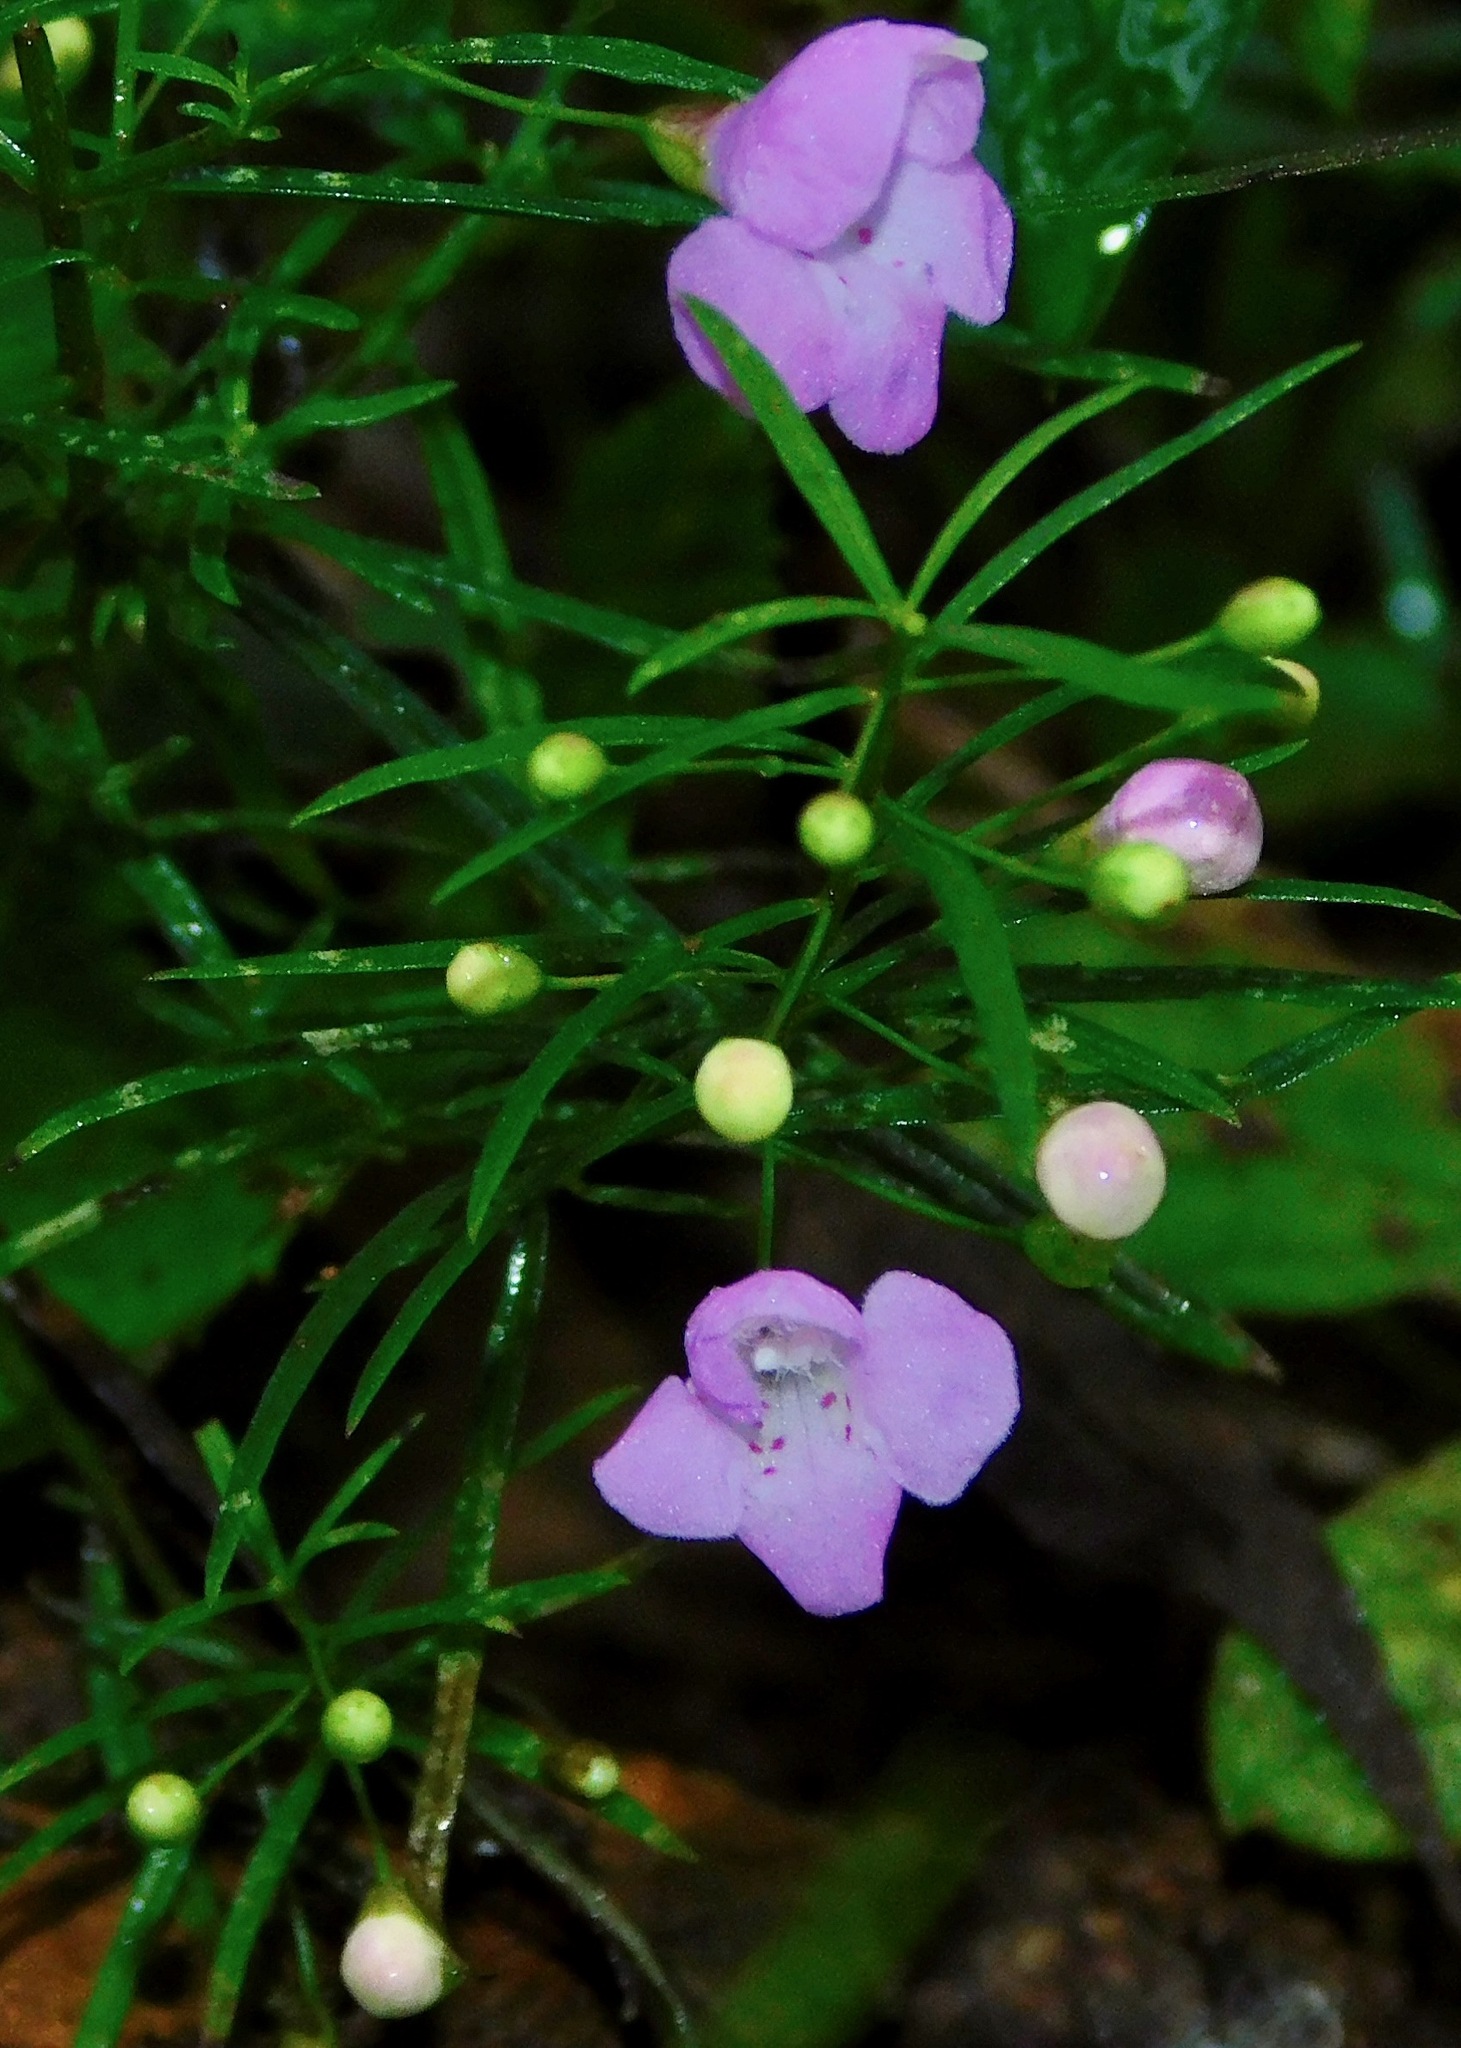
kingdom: Plantae
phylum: Tracheophyta
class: Magnoliopsida
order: Lamiales
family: Orobanchaceae
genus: Agalinis
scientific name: Agalinis tenuifolia
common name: Slender agalinis
